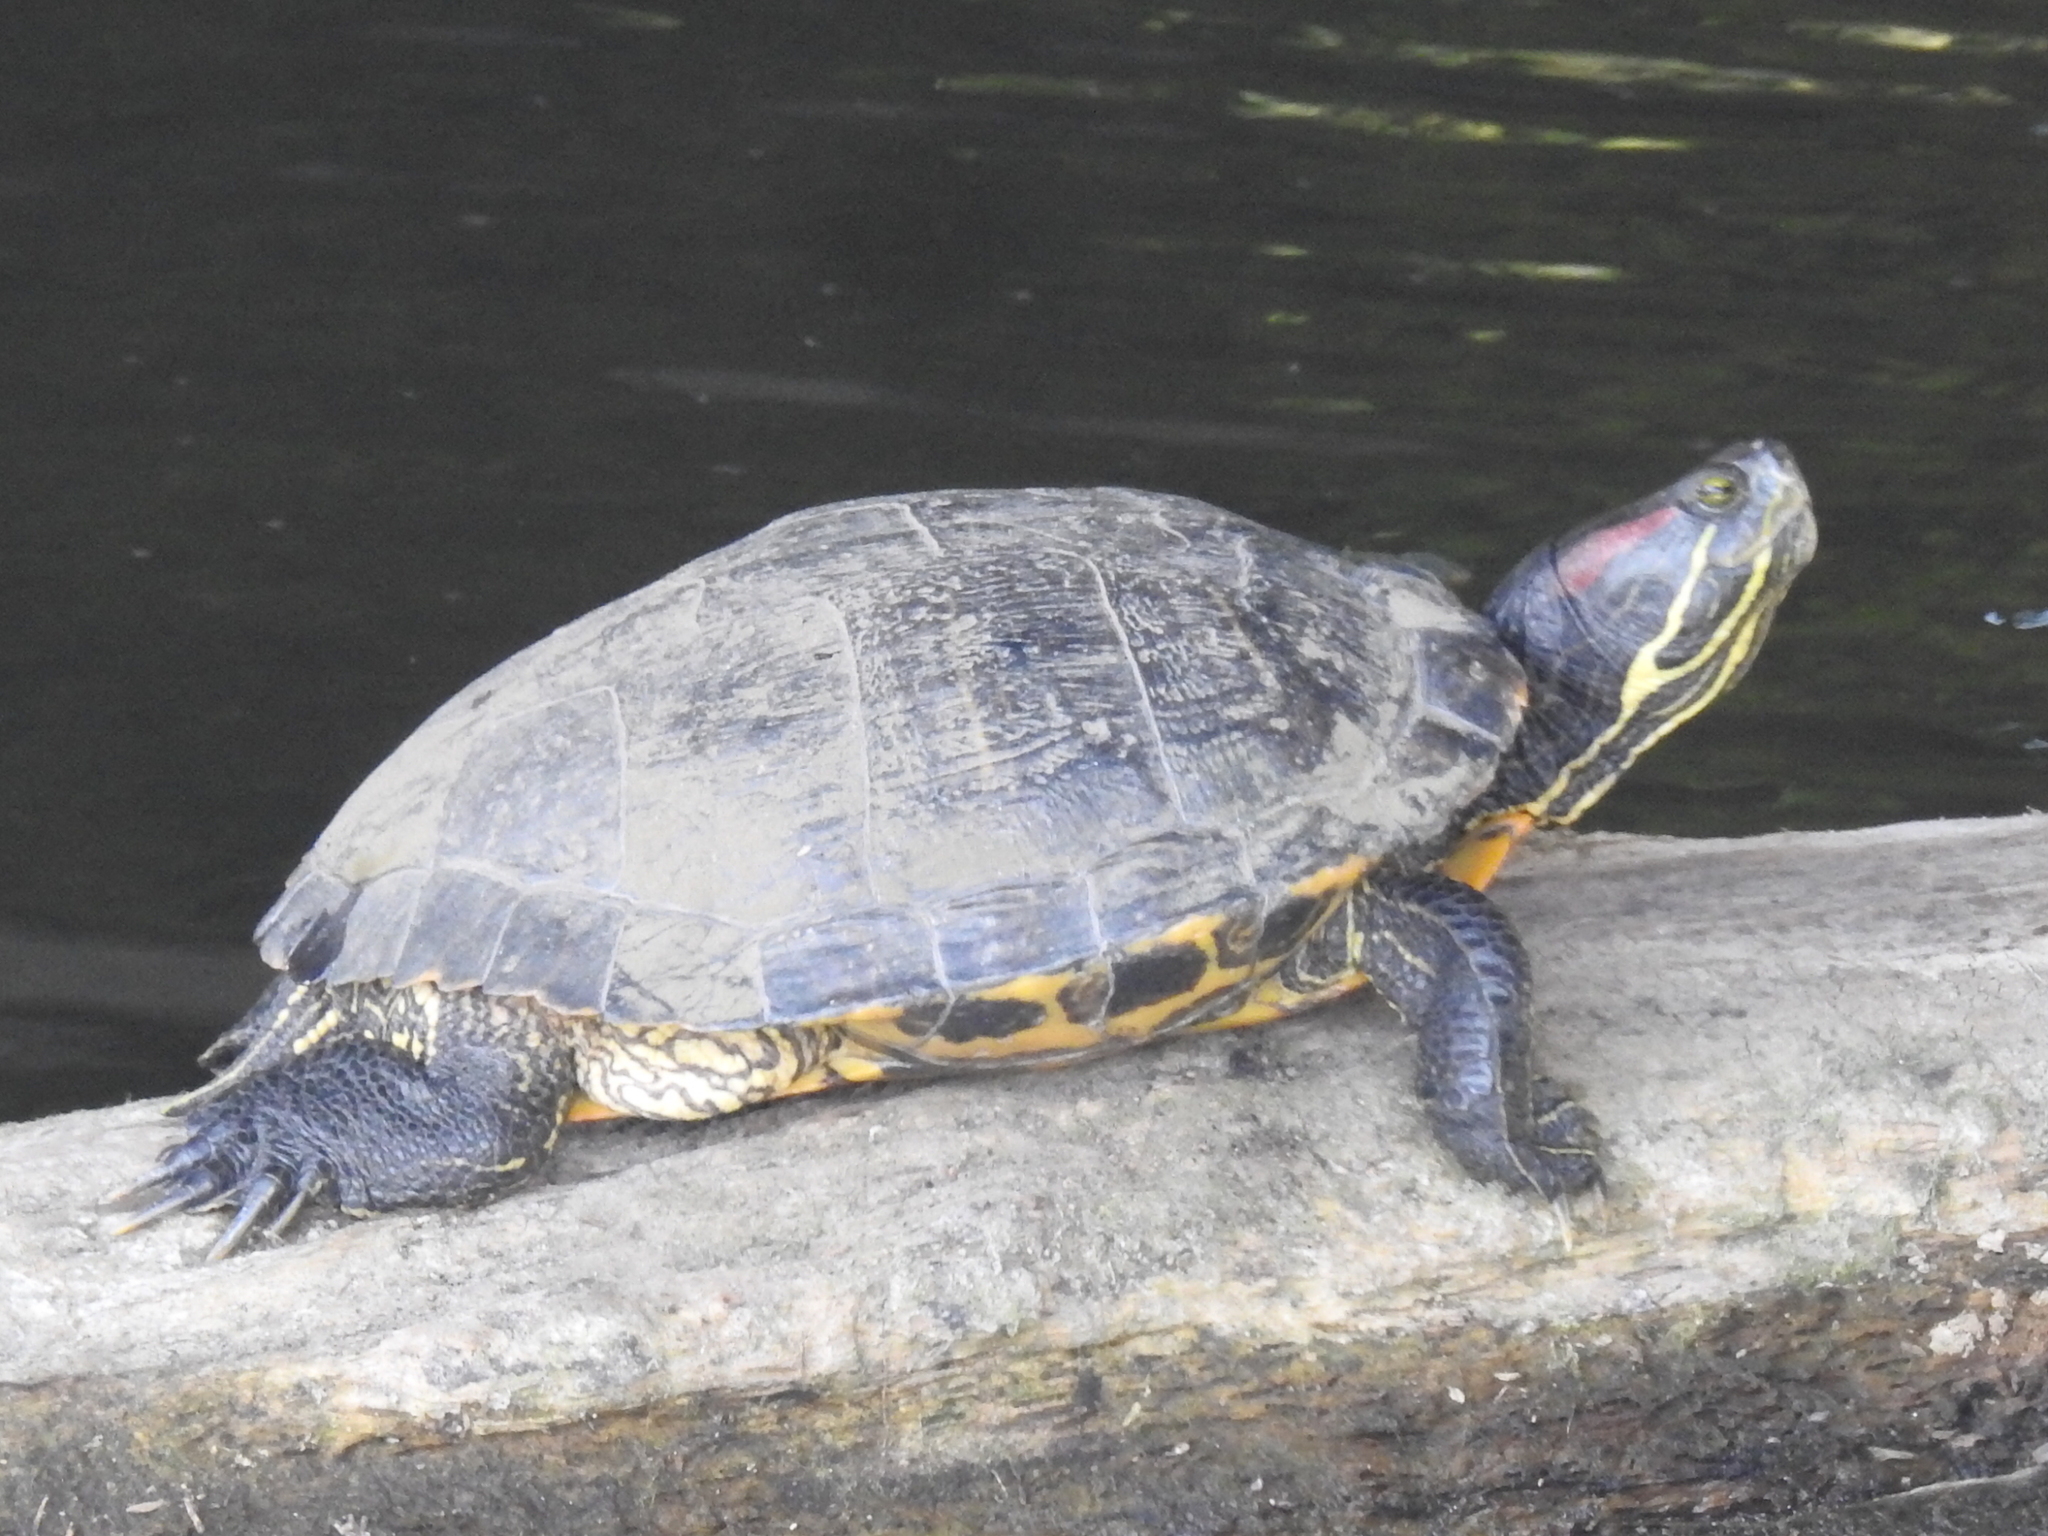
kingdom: Animalia
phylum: Chordata
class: Testudines
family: Emydidae
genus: Trachemys
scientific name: Trachemys scripta
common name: Slider
